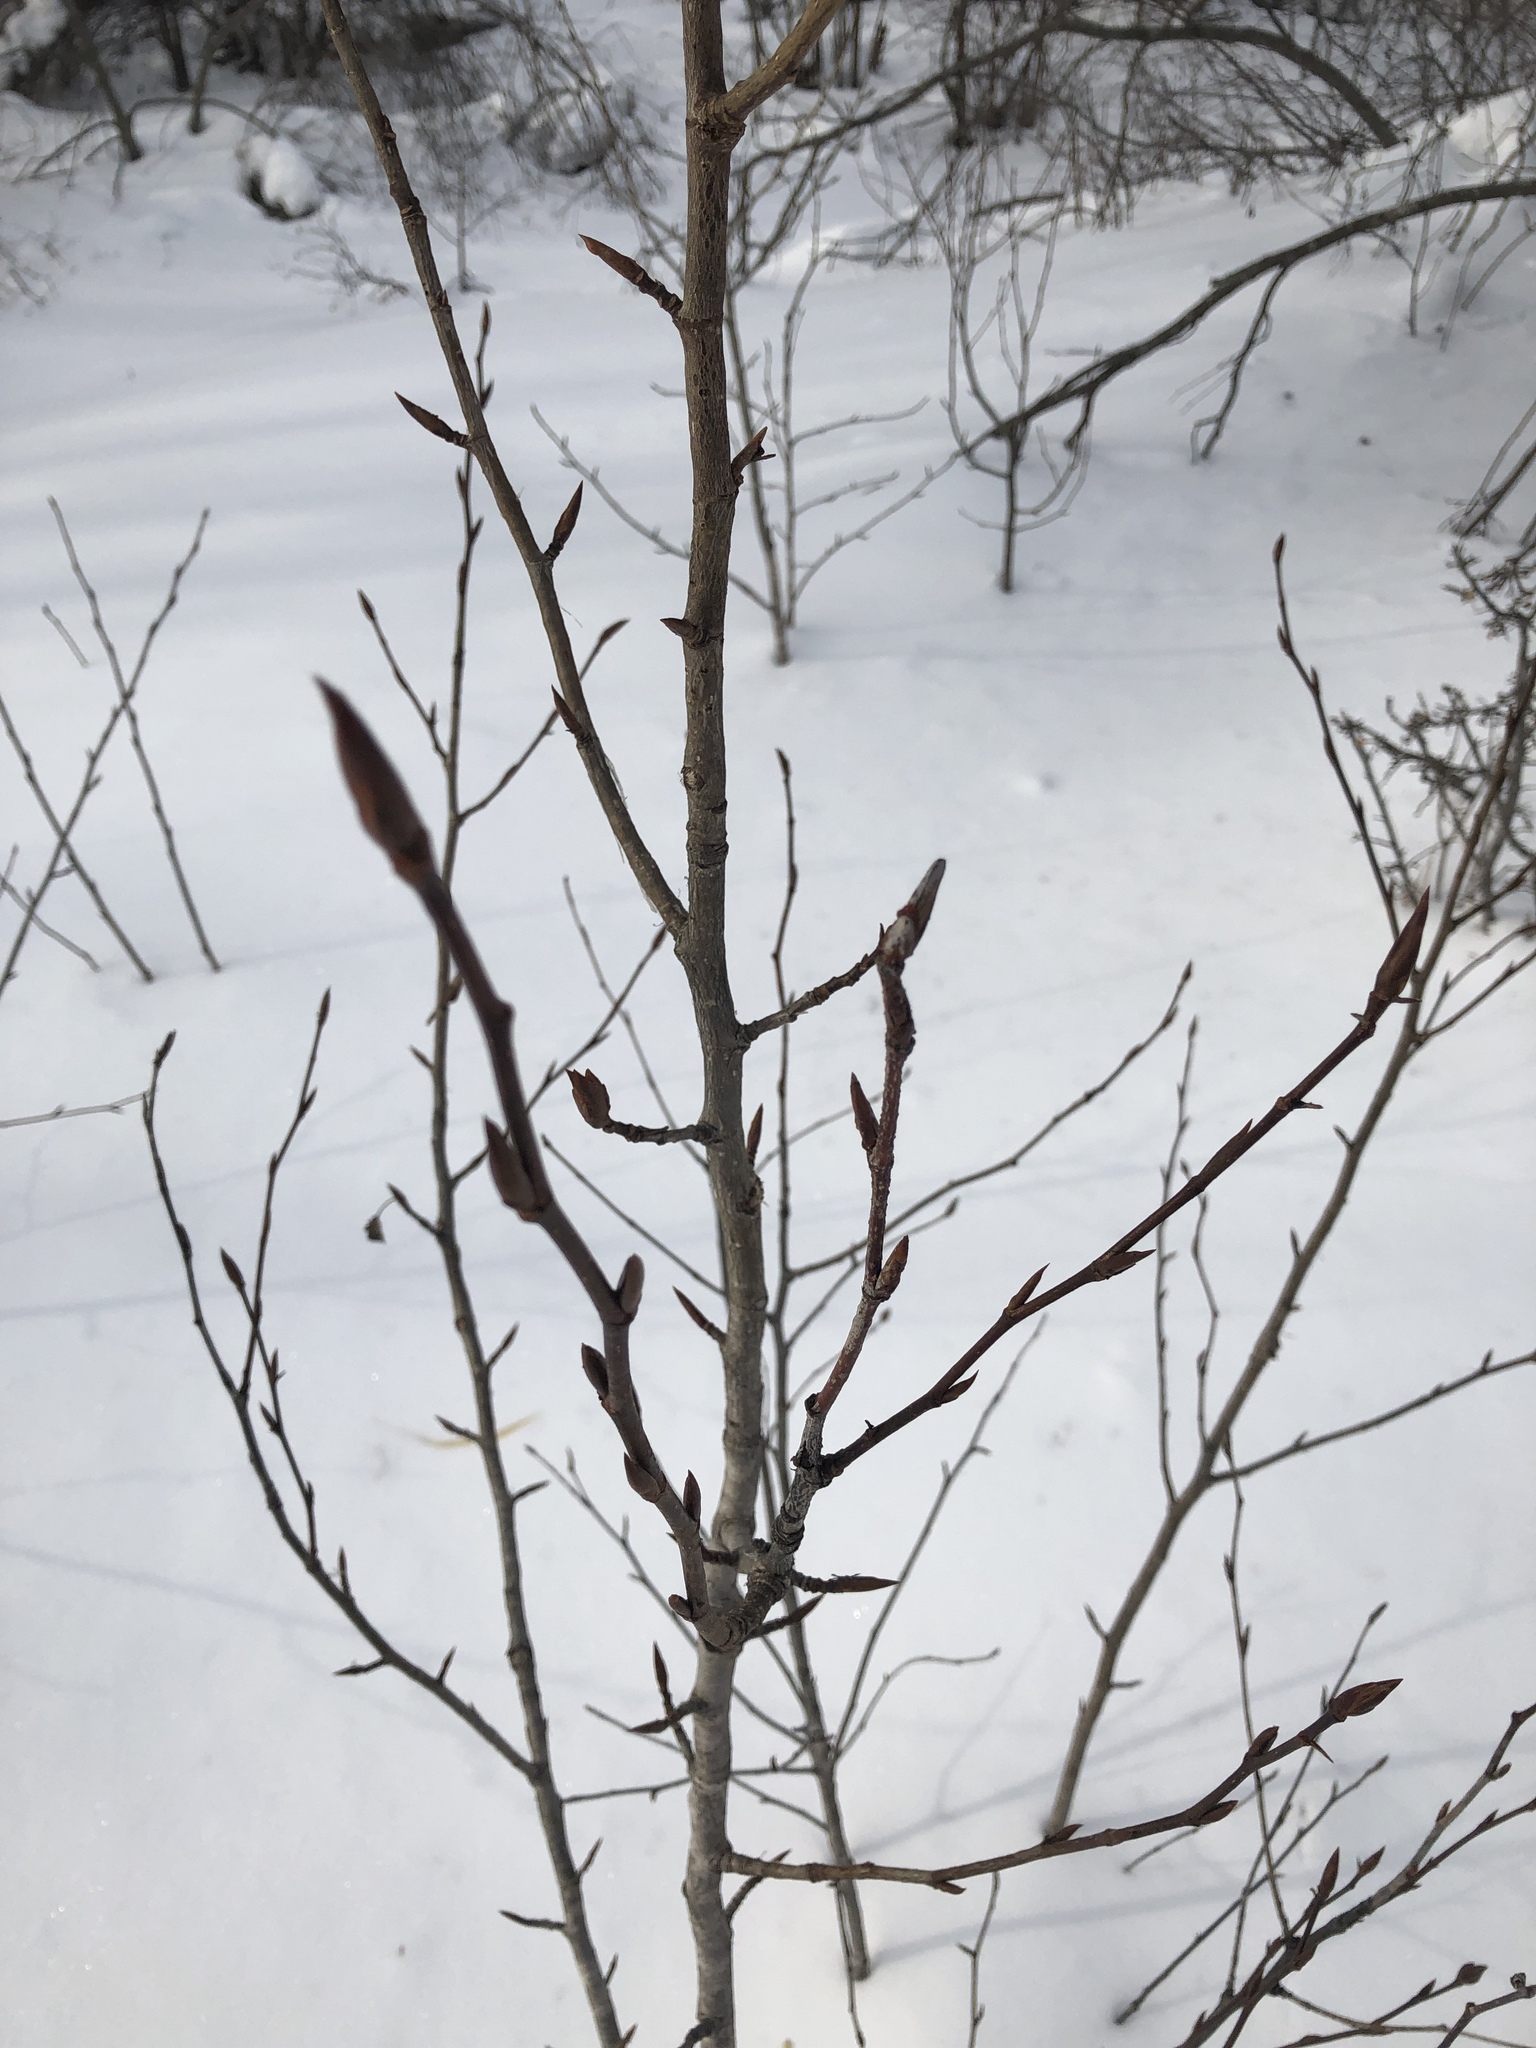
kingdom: Plantae
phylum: Tracheophyta
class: Magnoliopsida
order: Malpighiales
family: Salicaceae
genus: Populus
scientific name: Populus balsamifera
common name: Balsam poplar
